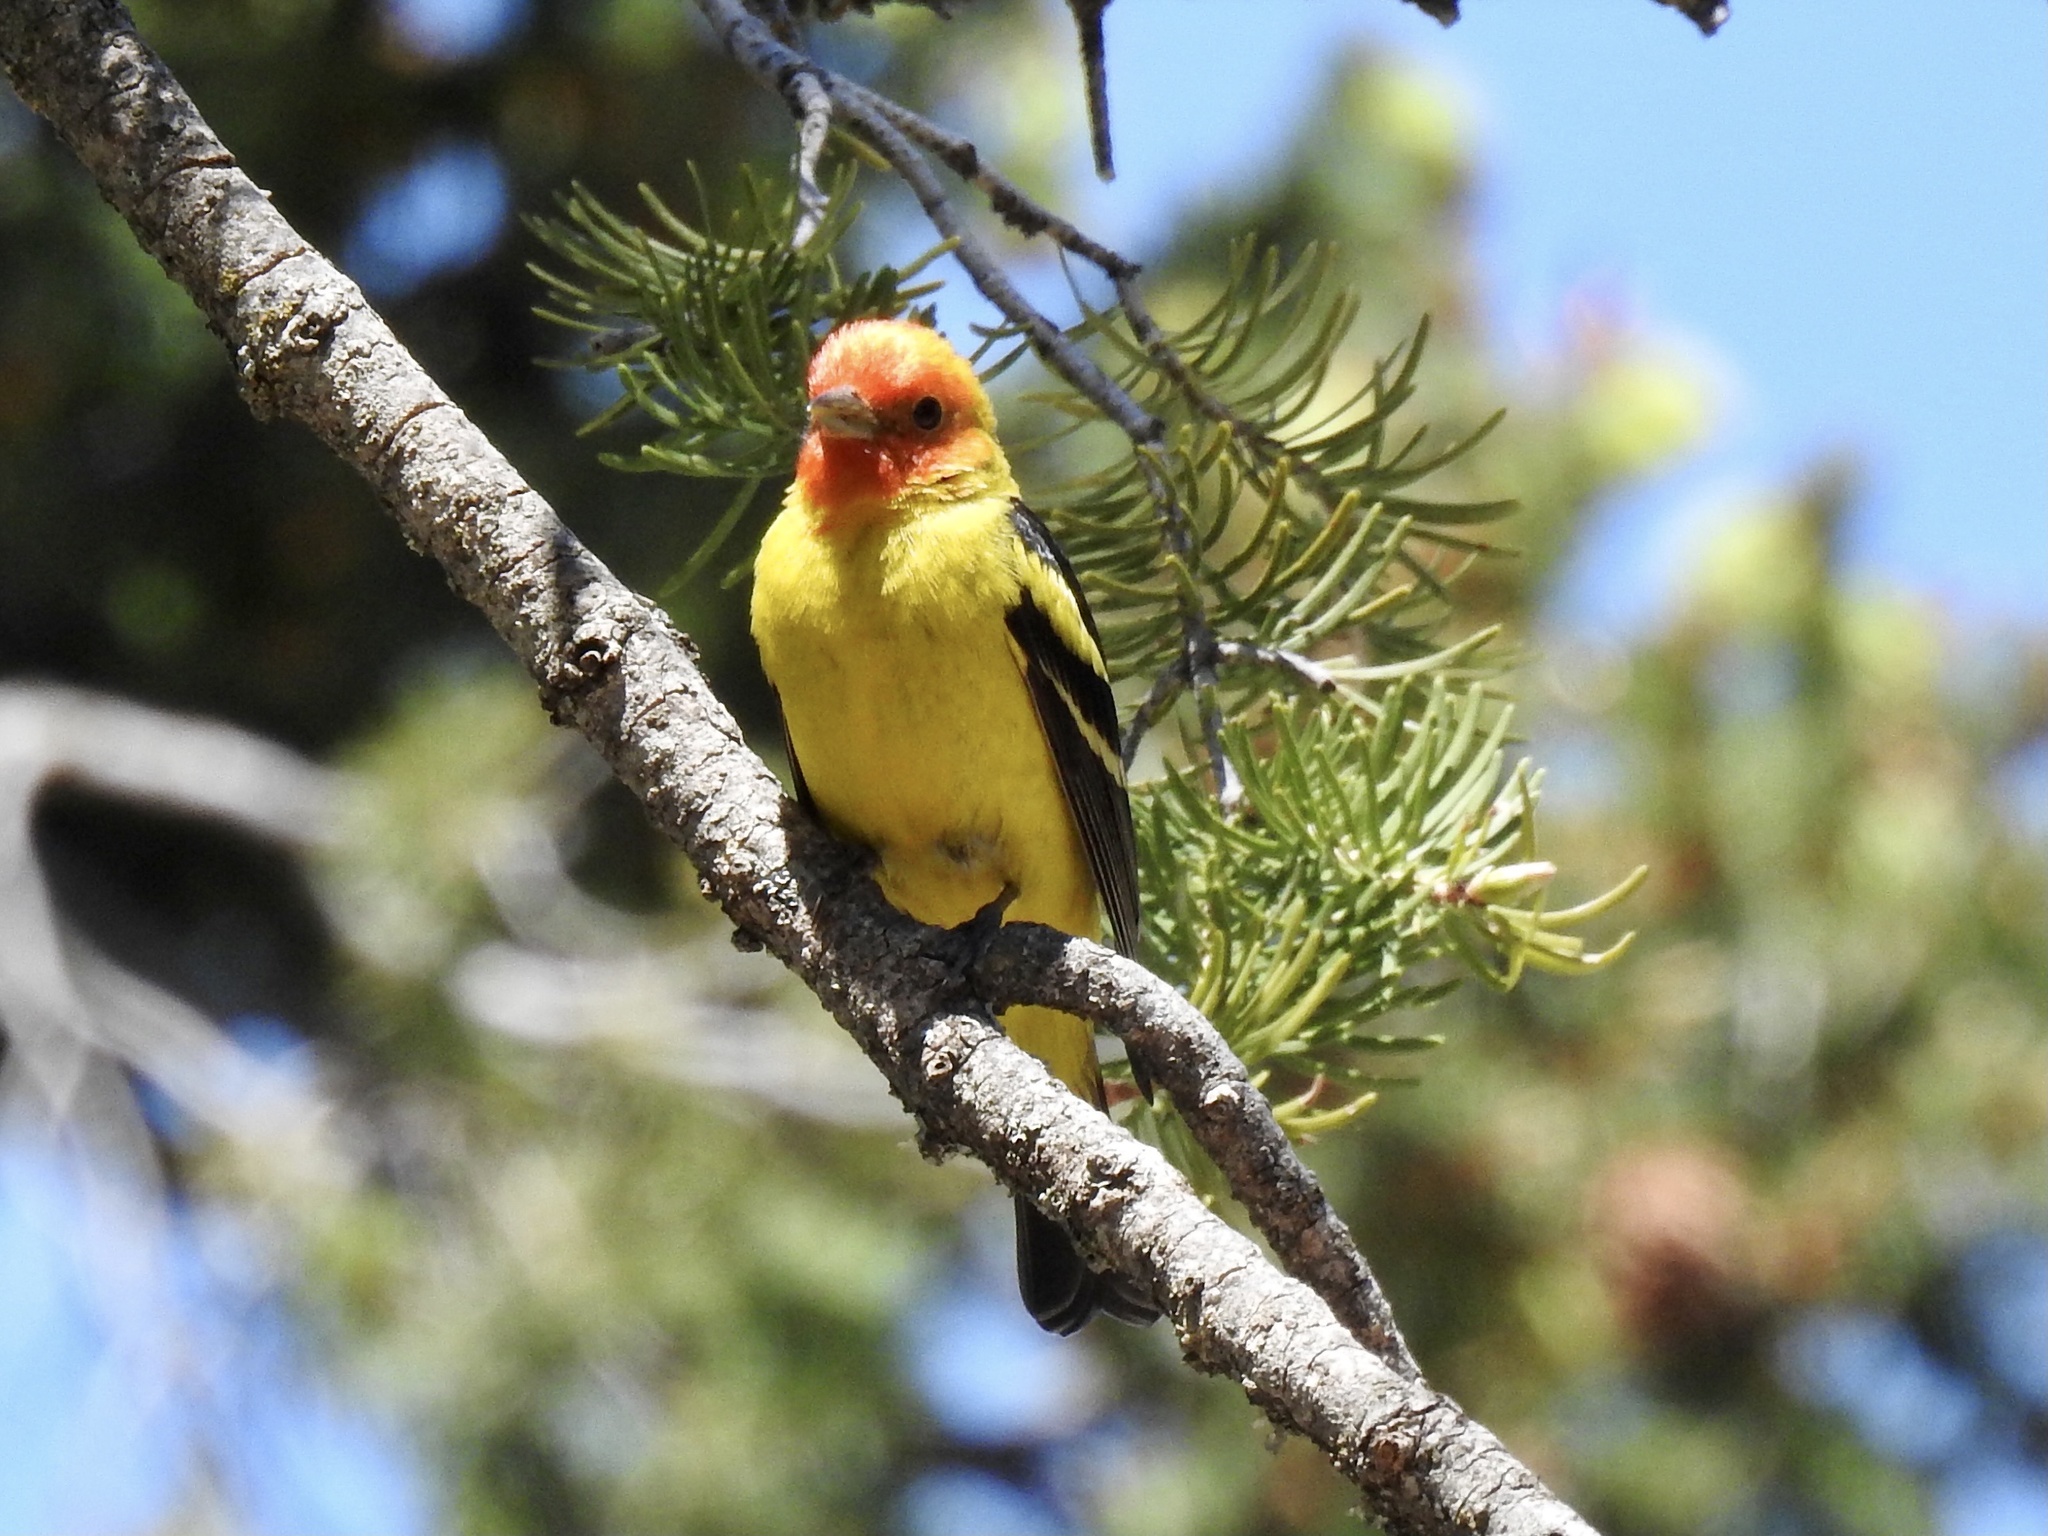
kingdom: Animalia
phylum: Chordata
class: Aves
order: Passeriformes
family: Cardinalidae
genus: Piranga
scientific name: Piranga ludoviciana
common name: Western tanager
